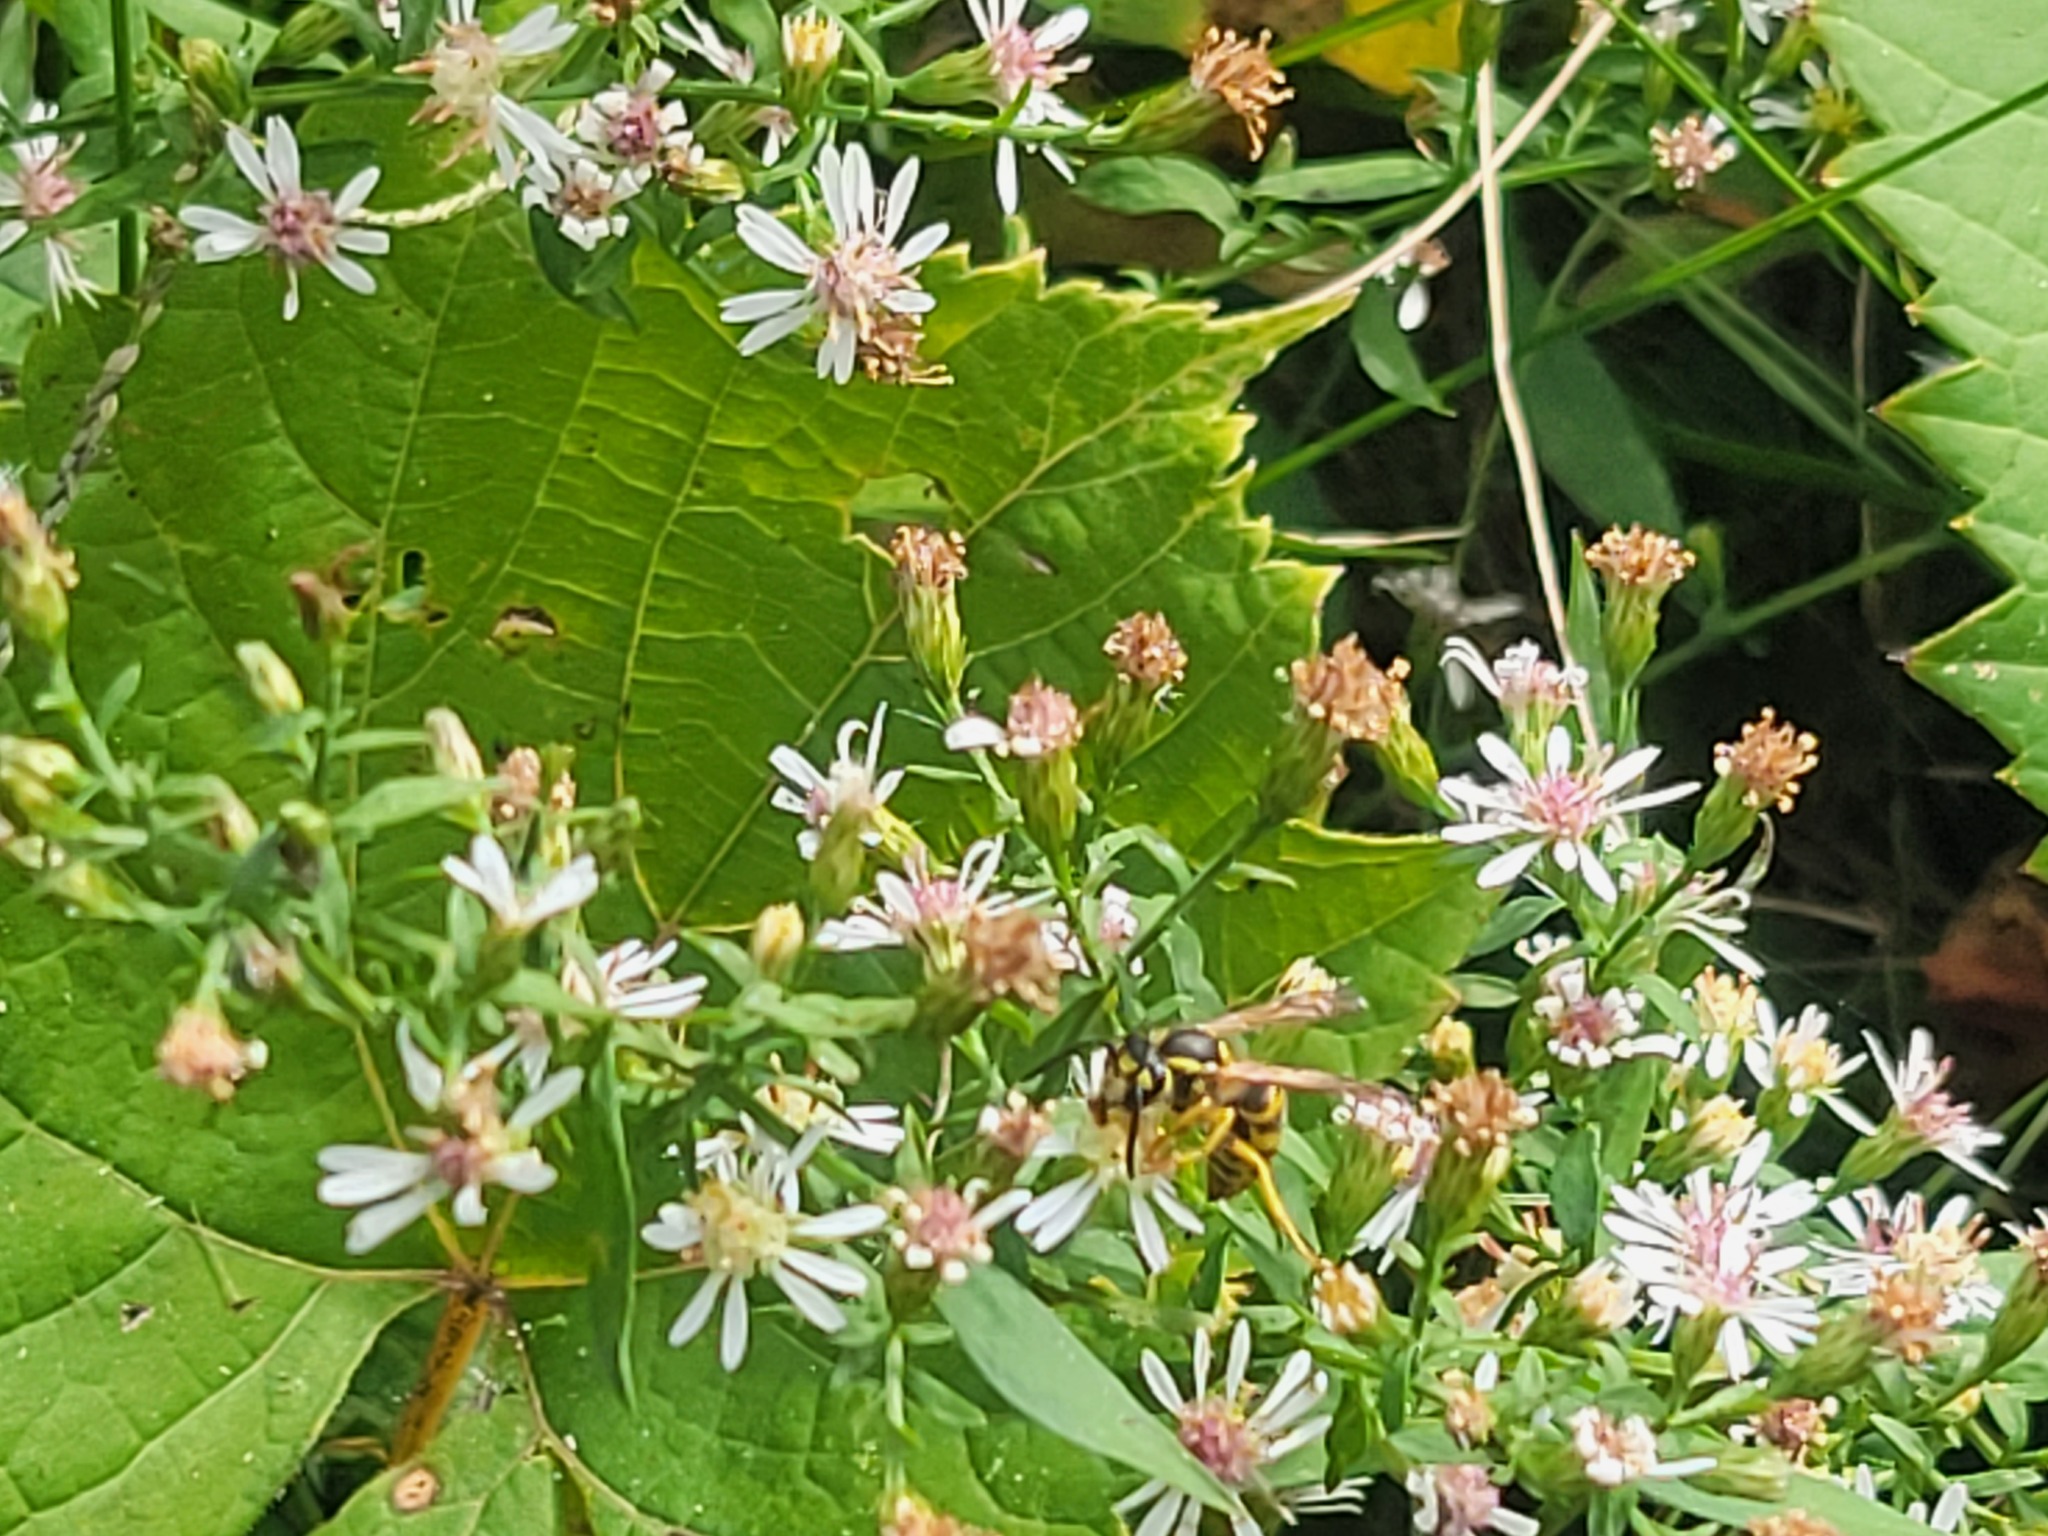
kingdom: Animalia
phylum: Arthropoda
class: Insecta
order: Hymenoptera
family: Vespidae
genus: Vespula
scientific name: Vespula maculifrons
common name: Eastern yellowjacket
